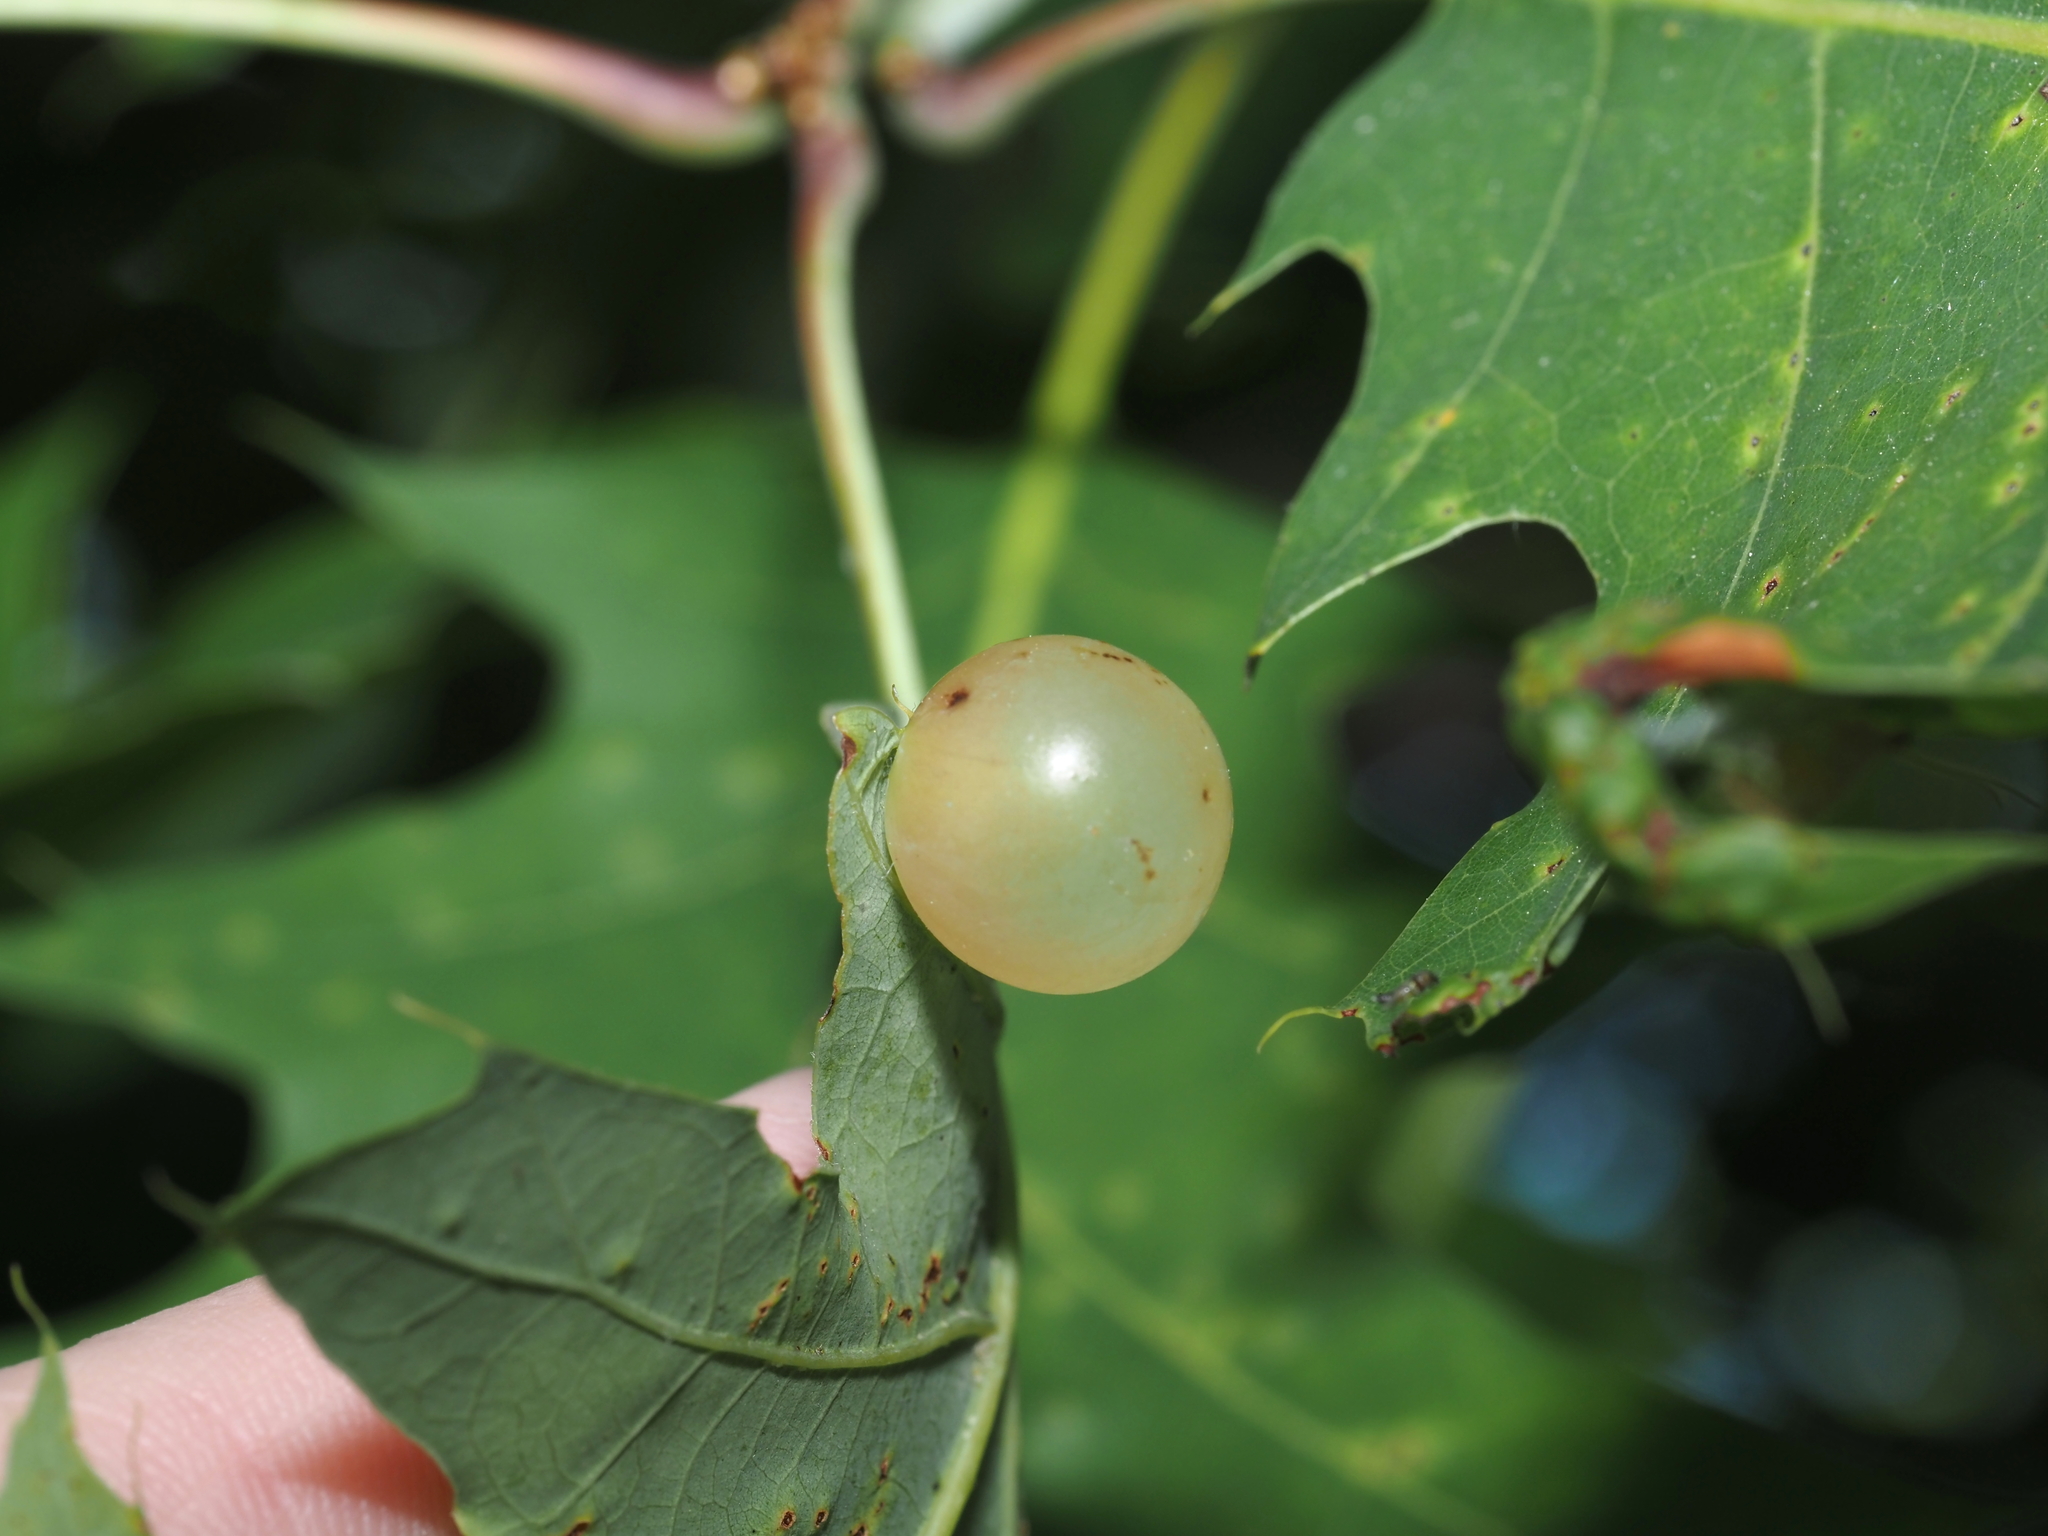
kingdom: Animalia
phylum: Arthropoda
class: Insecta
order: Hymenoptera
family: Cynipidae
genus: Amphibolips
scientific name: Amphibolips
